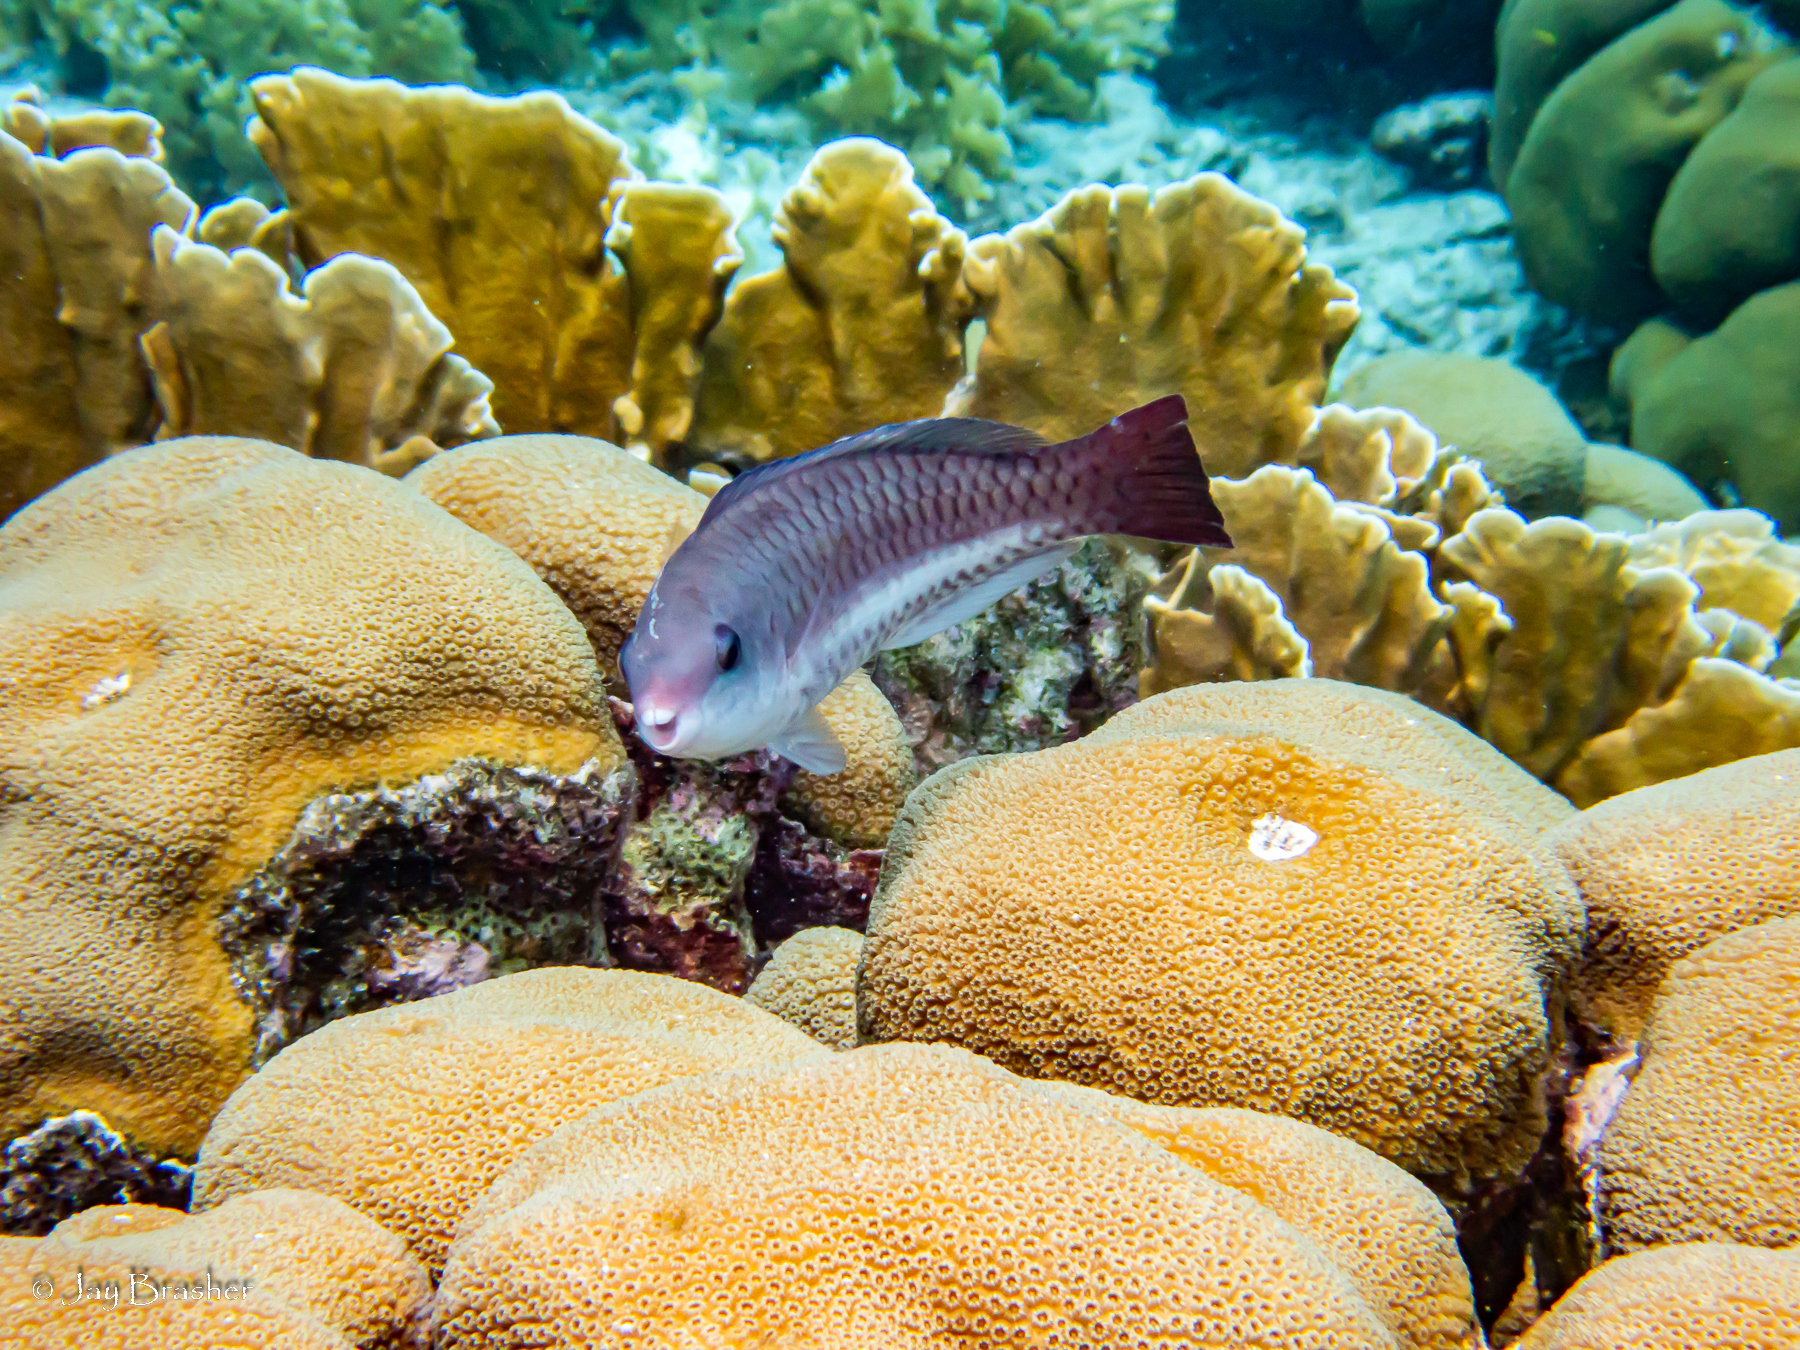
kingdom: Animalia
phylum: Chordata
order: Perciformes
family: Scaridae
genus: Scarus
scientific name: Scarus vetula
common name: Queen parrotfish
